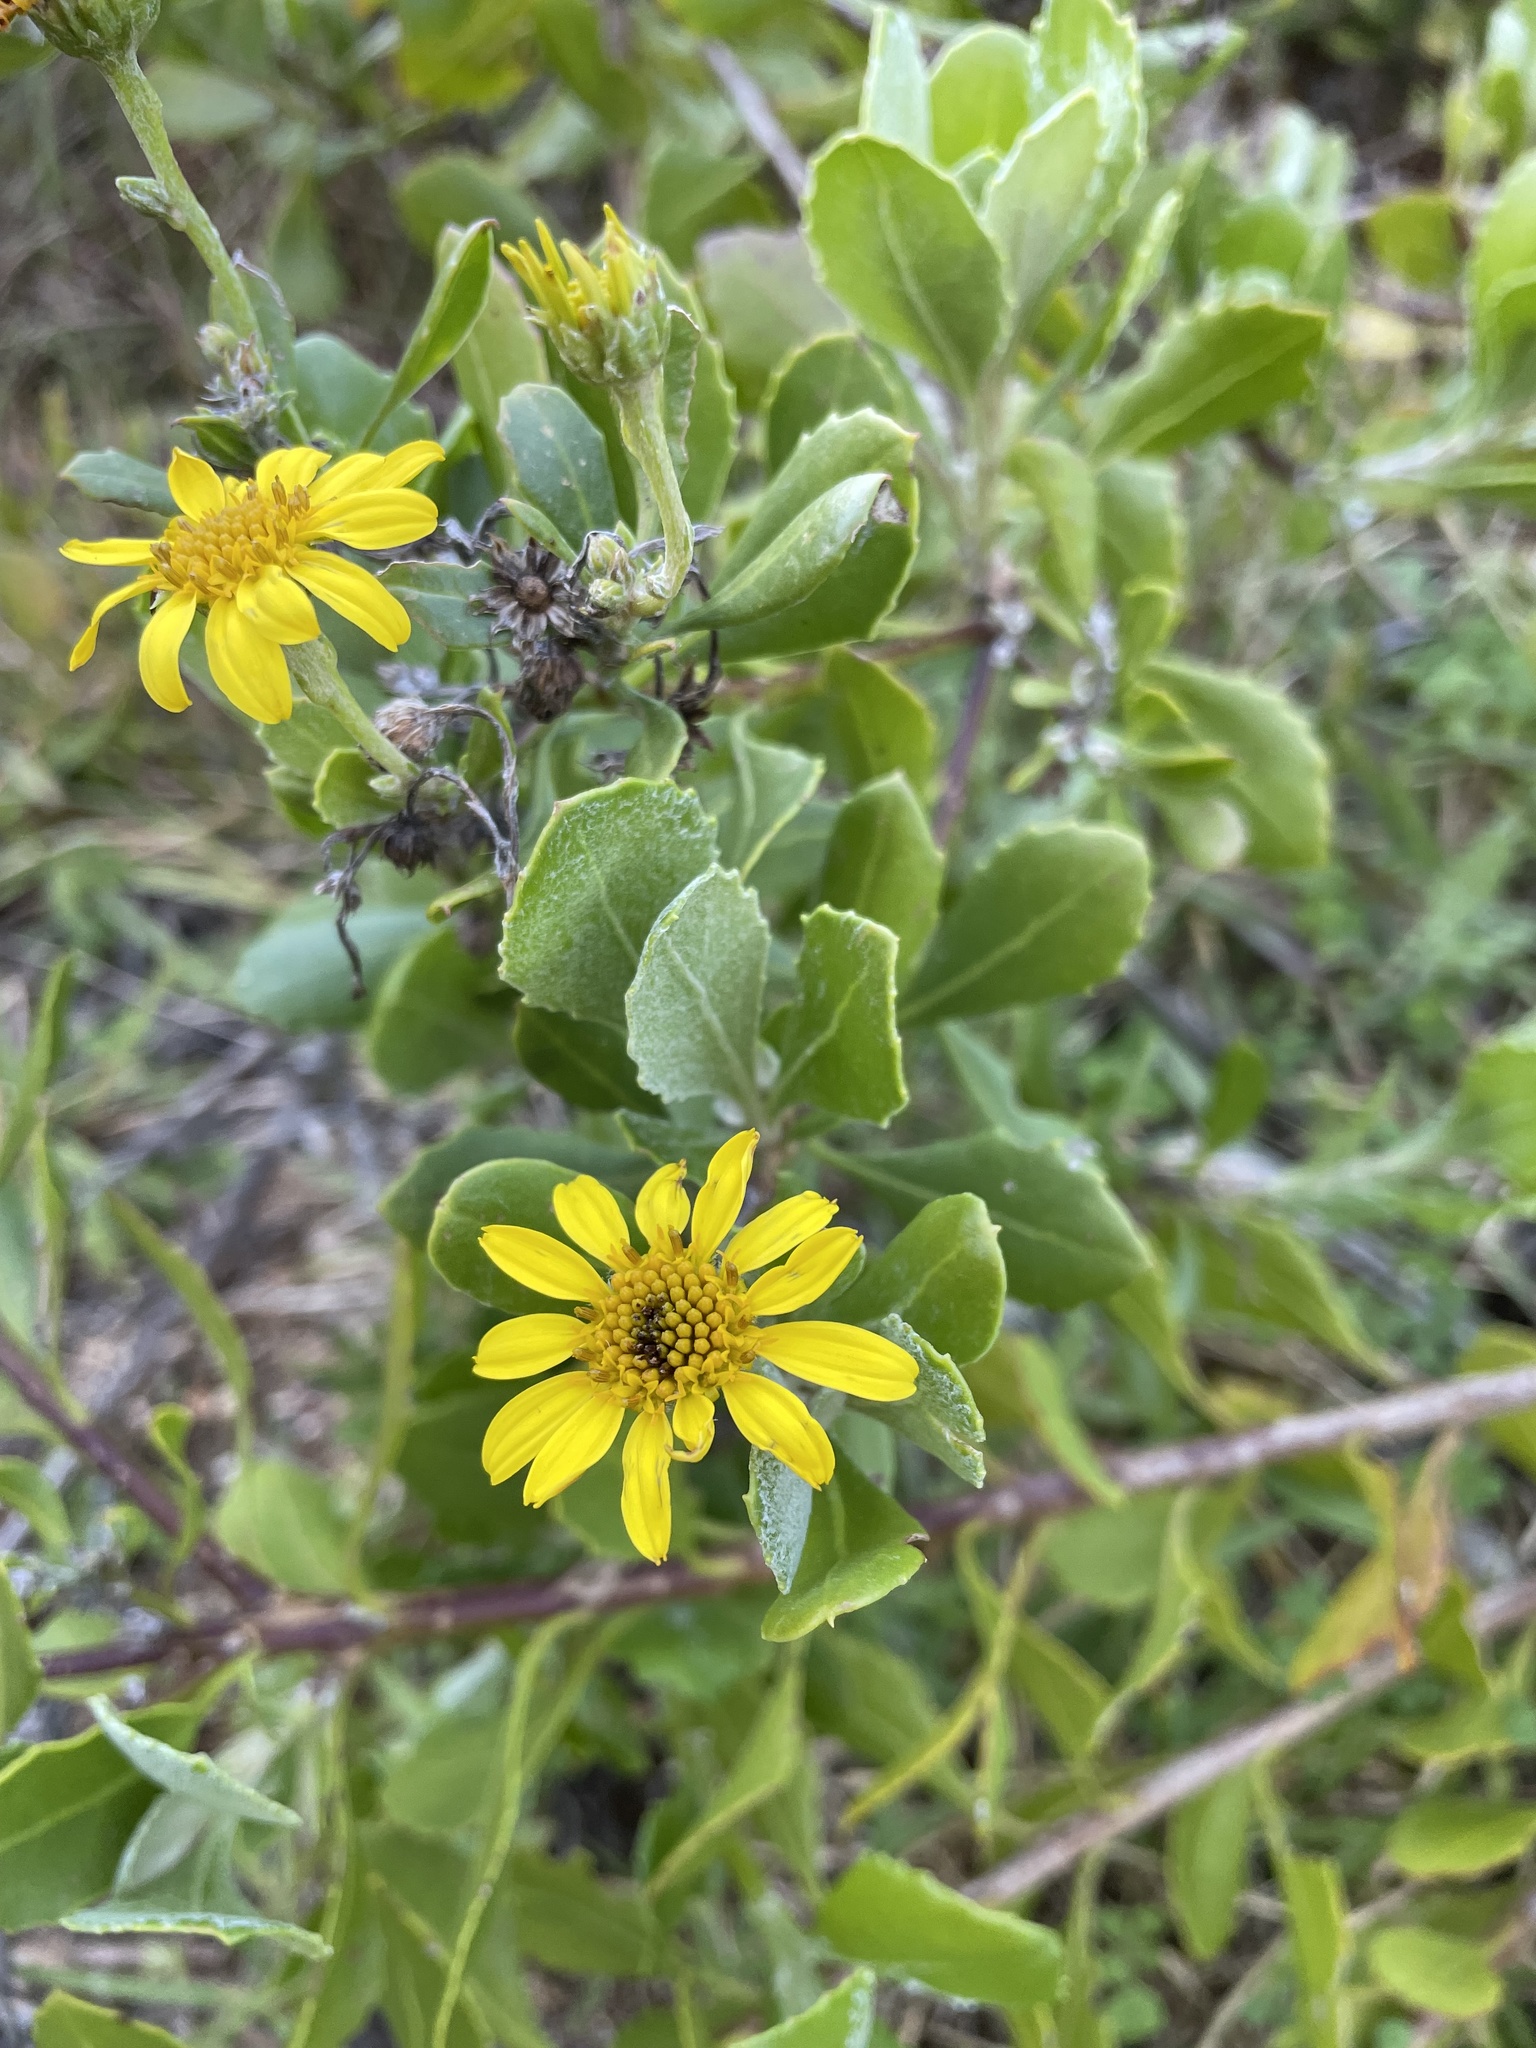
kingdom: Plantae
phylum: Tracheophyta
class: Magnoliopsida
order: Asterales
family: Asteraceae
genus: Osteospermum
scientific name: Osteospermum moniliferum
